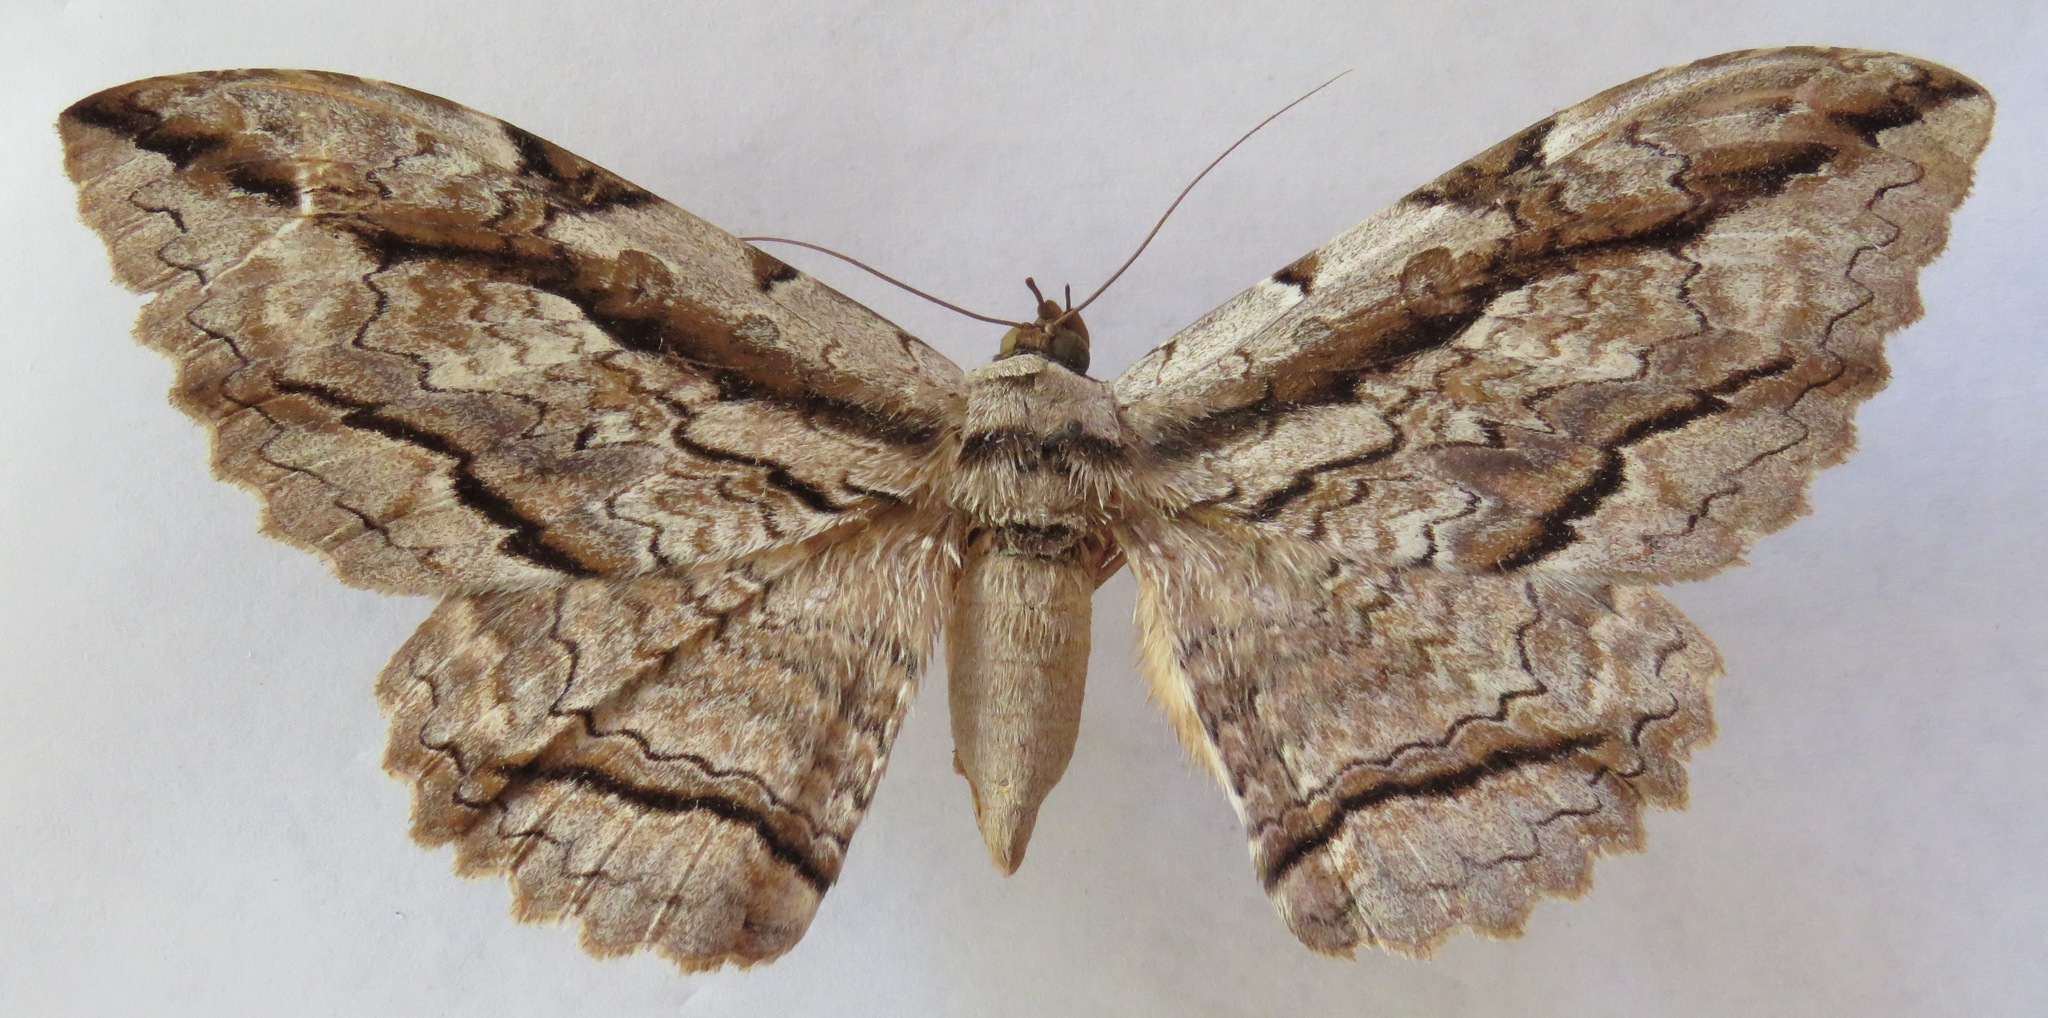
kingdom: Animalia
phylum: Arthropoda
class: Insecta
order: Lepidoptera
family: Erebidae
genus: Thysania
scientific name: Thysania zenobia
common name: Owl moth
